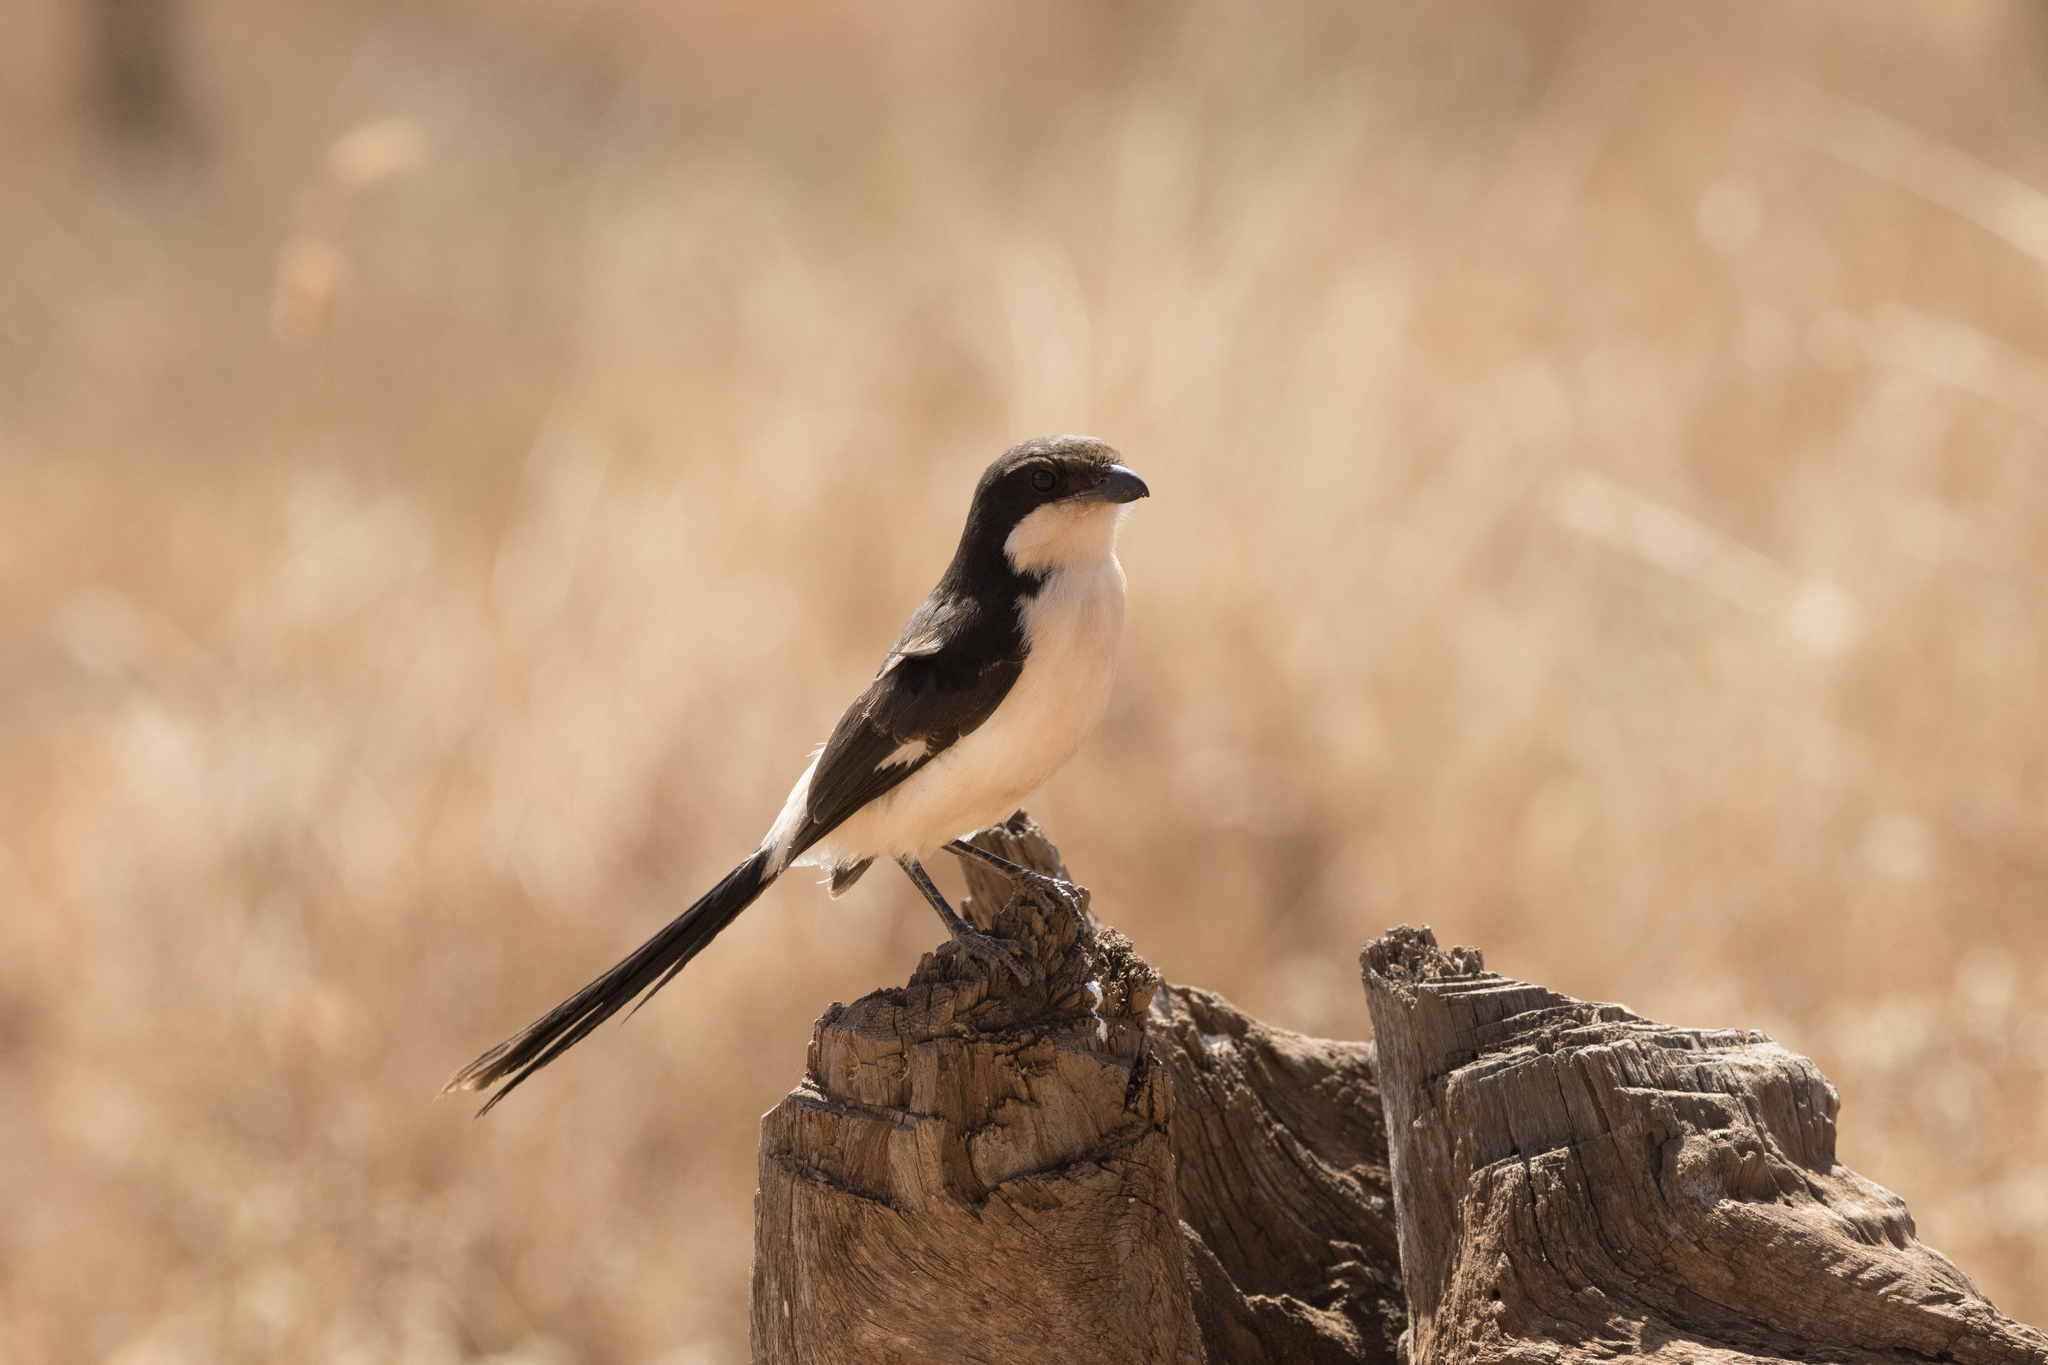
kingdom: Animalia
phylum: Chordata
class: Aves
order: Passeriformes
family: Laniidae
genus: Lanius
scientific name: Lanius cabanisi
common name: Long-tailed fiscal
